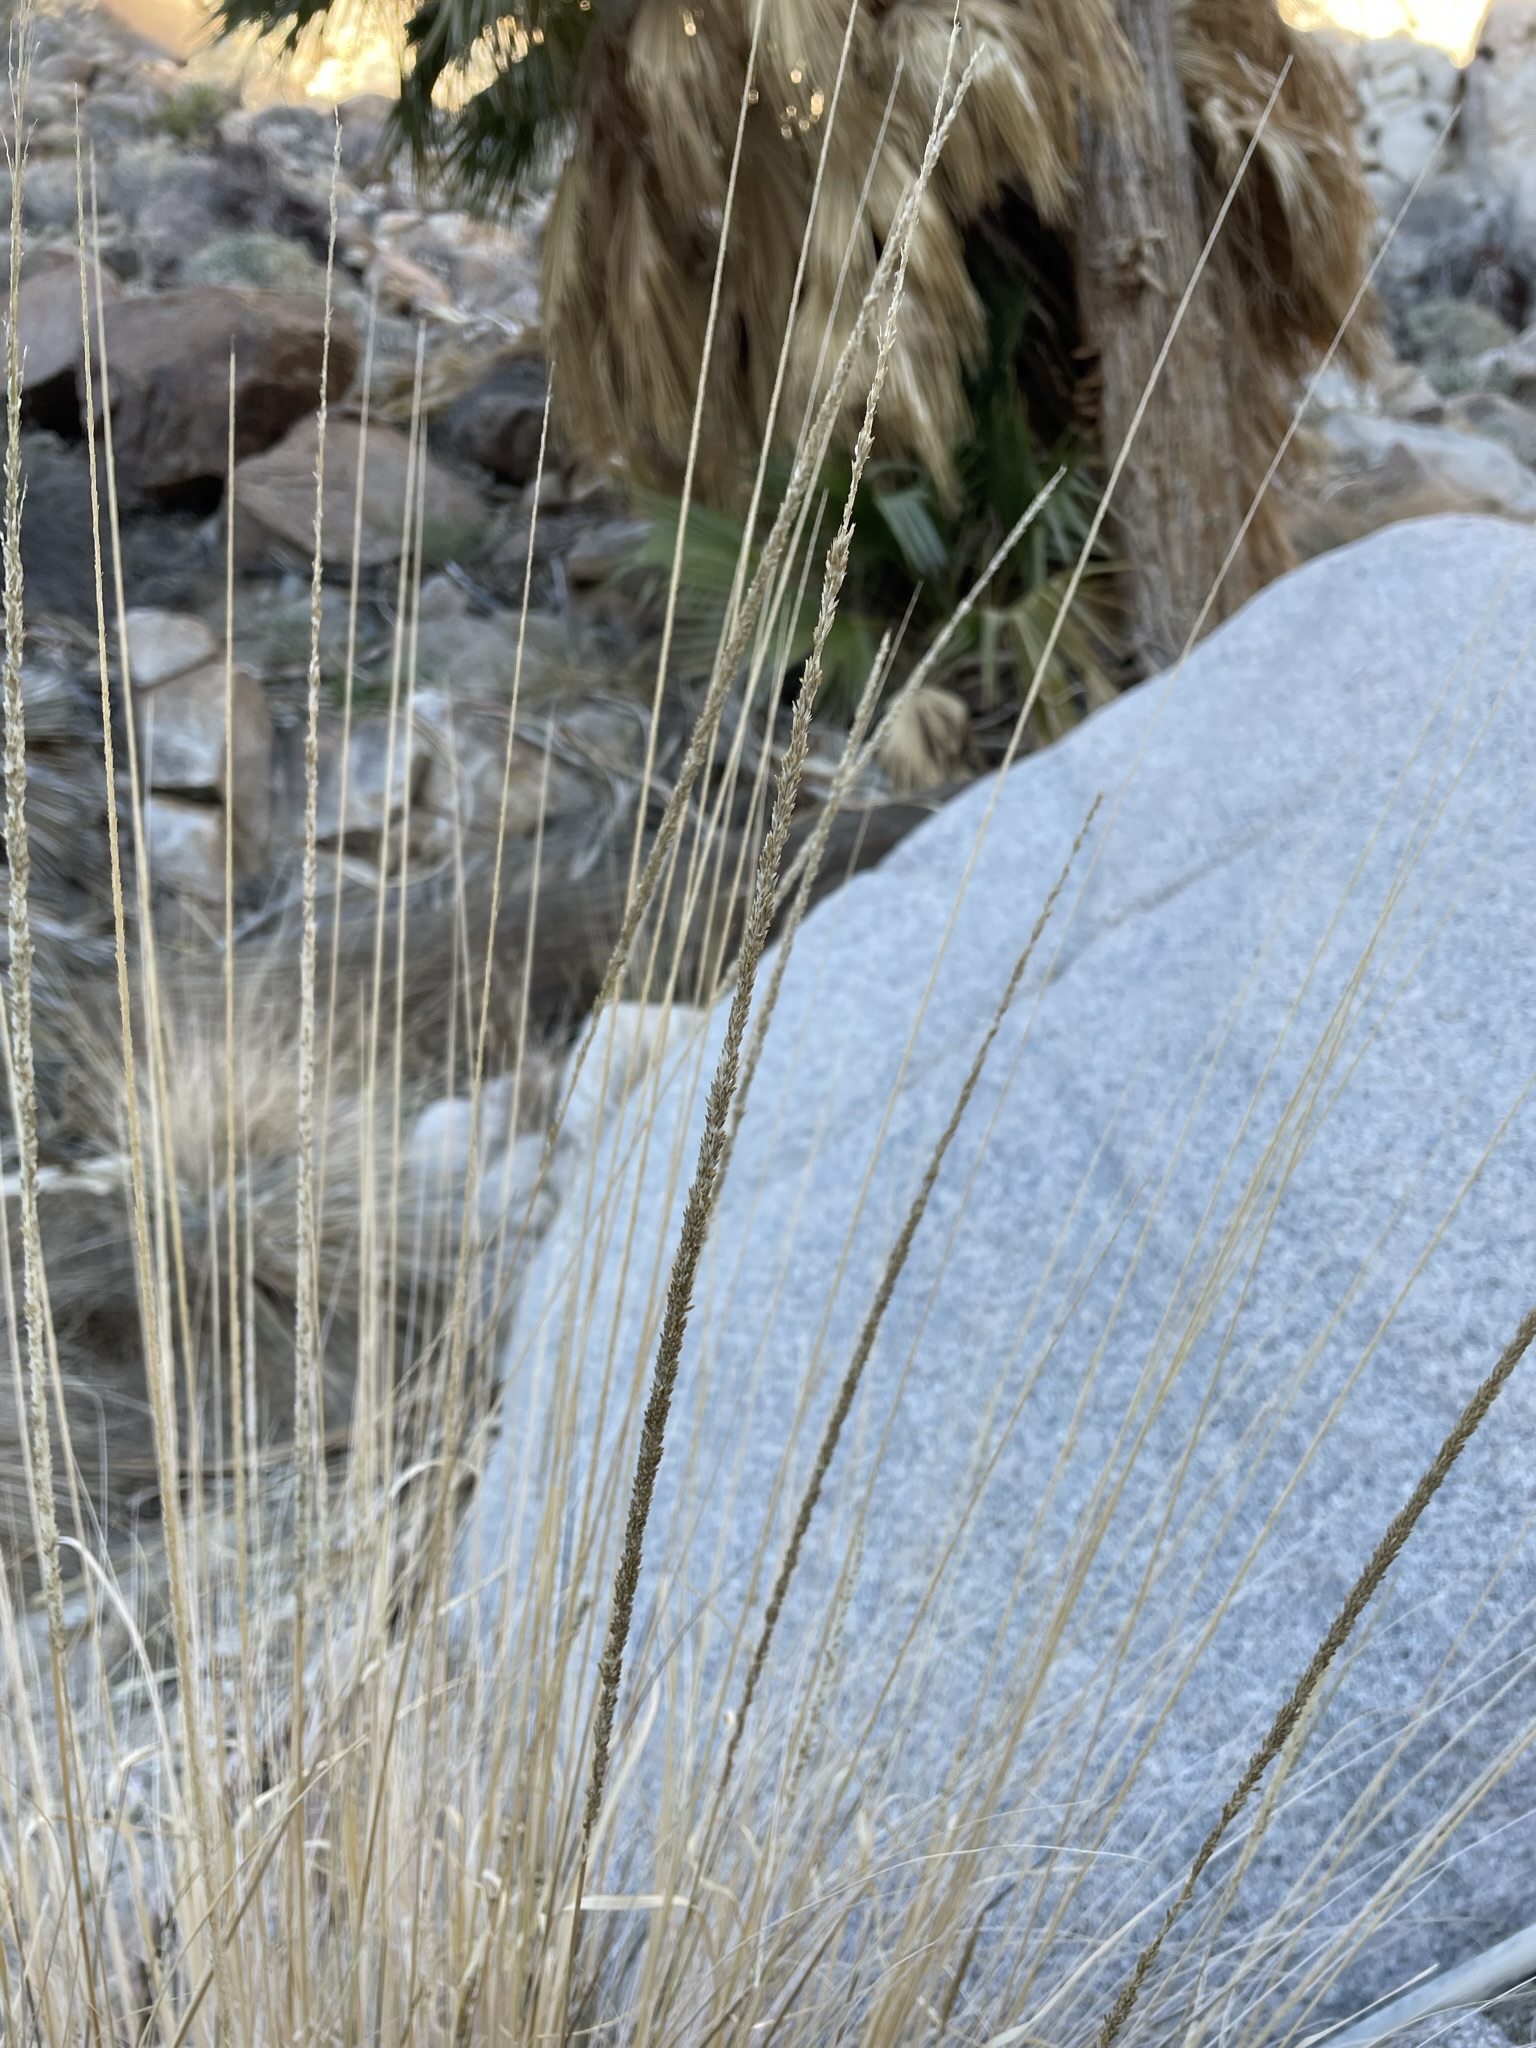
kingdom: Plantae
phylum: Tracheophyta
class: Liliopsida
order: Poales
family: Poaceae
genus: Muhlenbergia
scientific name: Muhlenbergia rigens
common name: Deer grass
